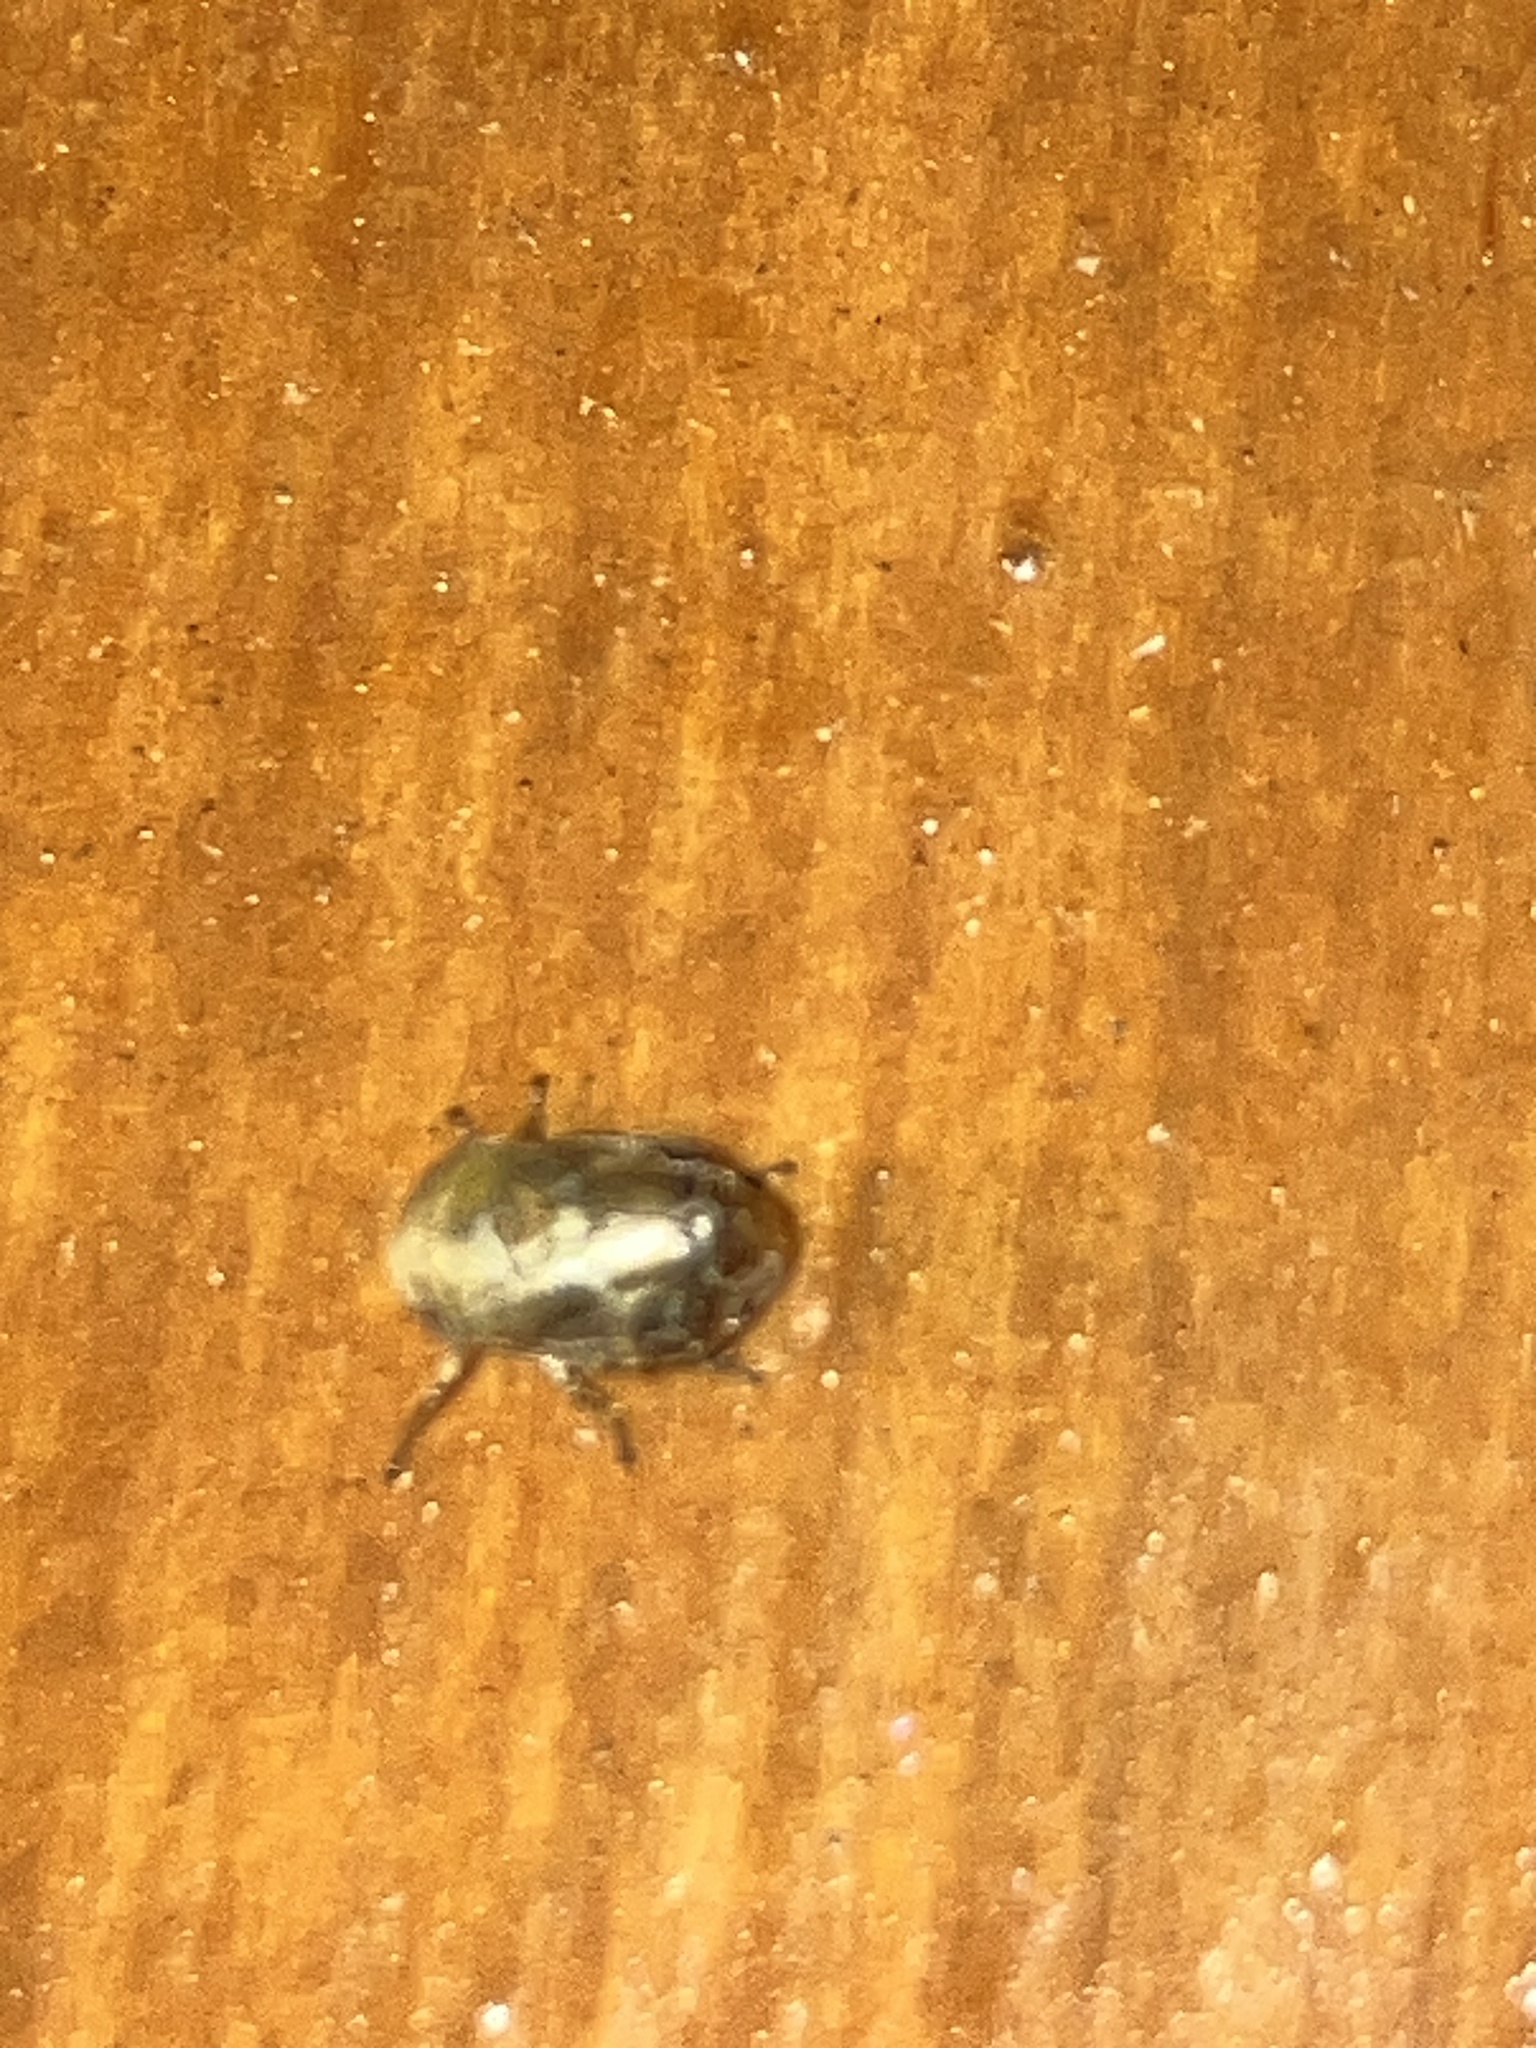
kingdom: Animalia
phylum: Arthropoda
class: Insecta
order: Hemiptera
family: Clastopteridae
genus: Clastoptera
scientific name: Clastoptera querci
